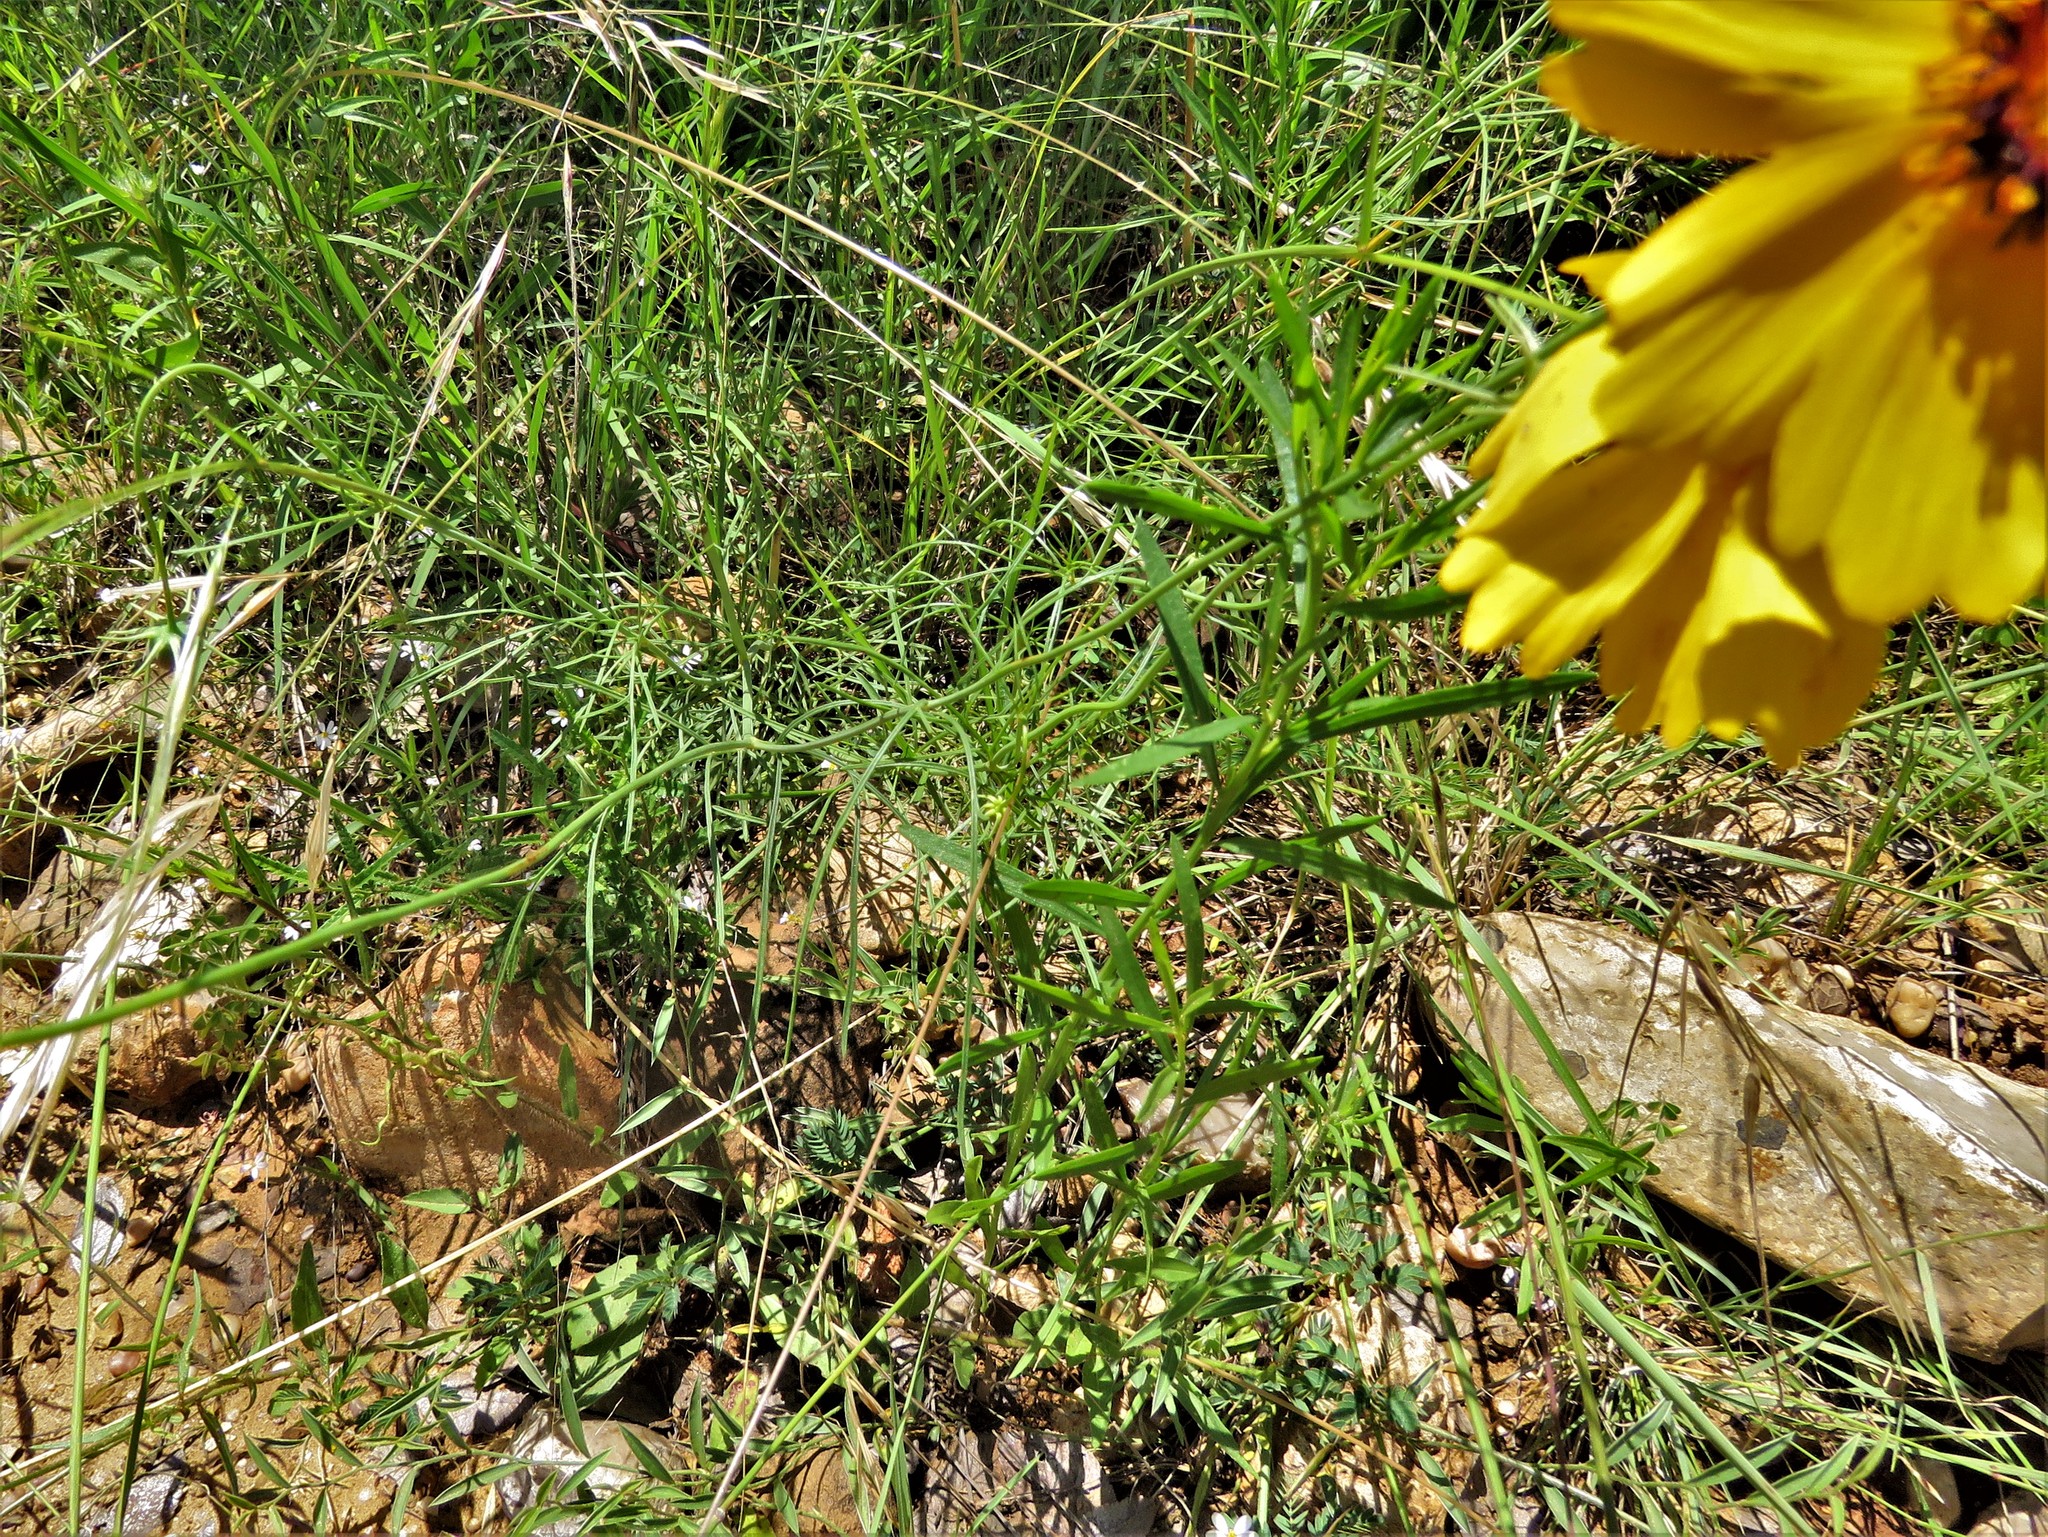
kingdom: Plantae
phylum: Tracheophyta
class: Magnoliopsida
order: Asterales
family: Asteraceae
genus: Helenium
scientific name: Helenium amarum
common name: Bitter sneezeweed
